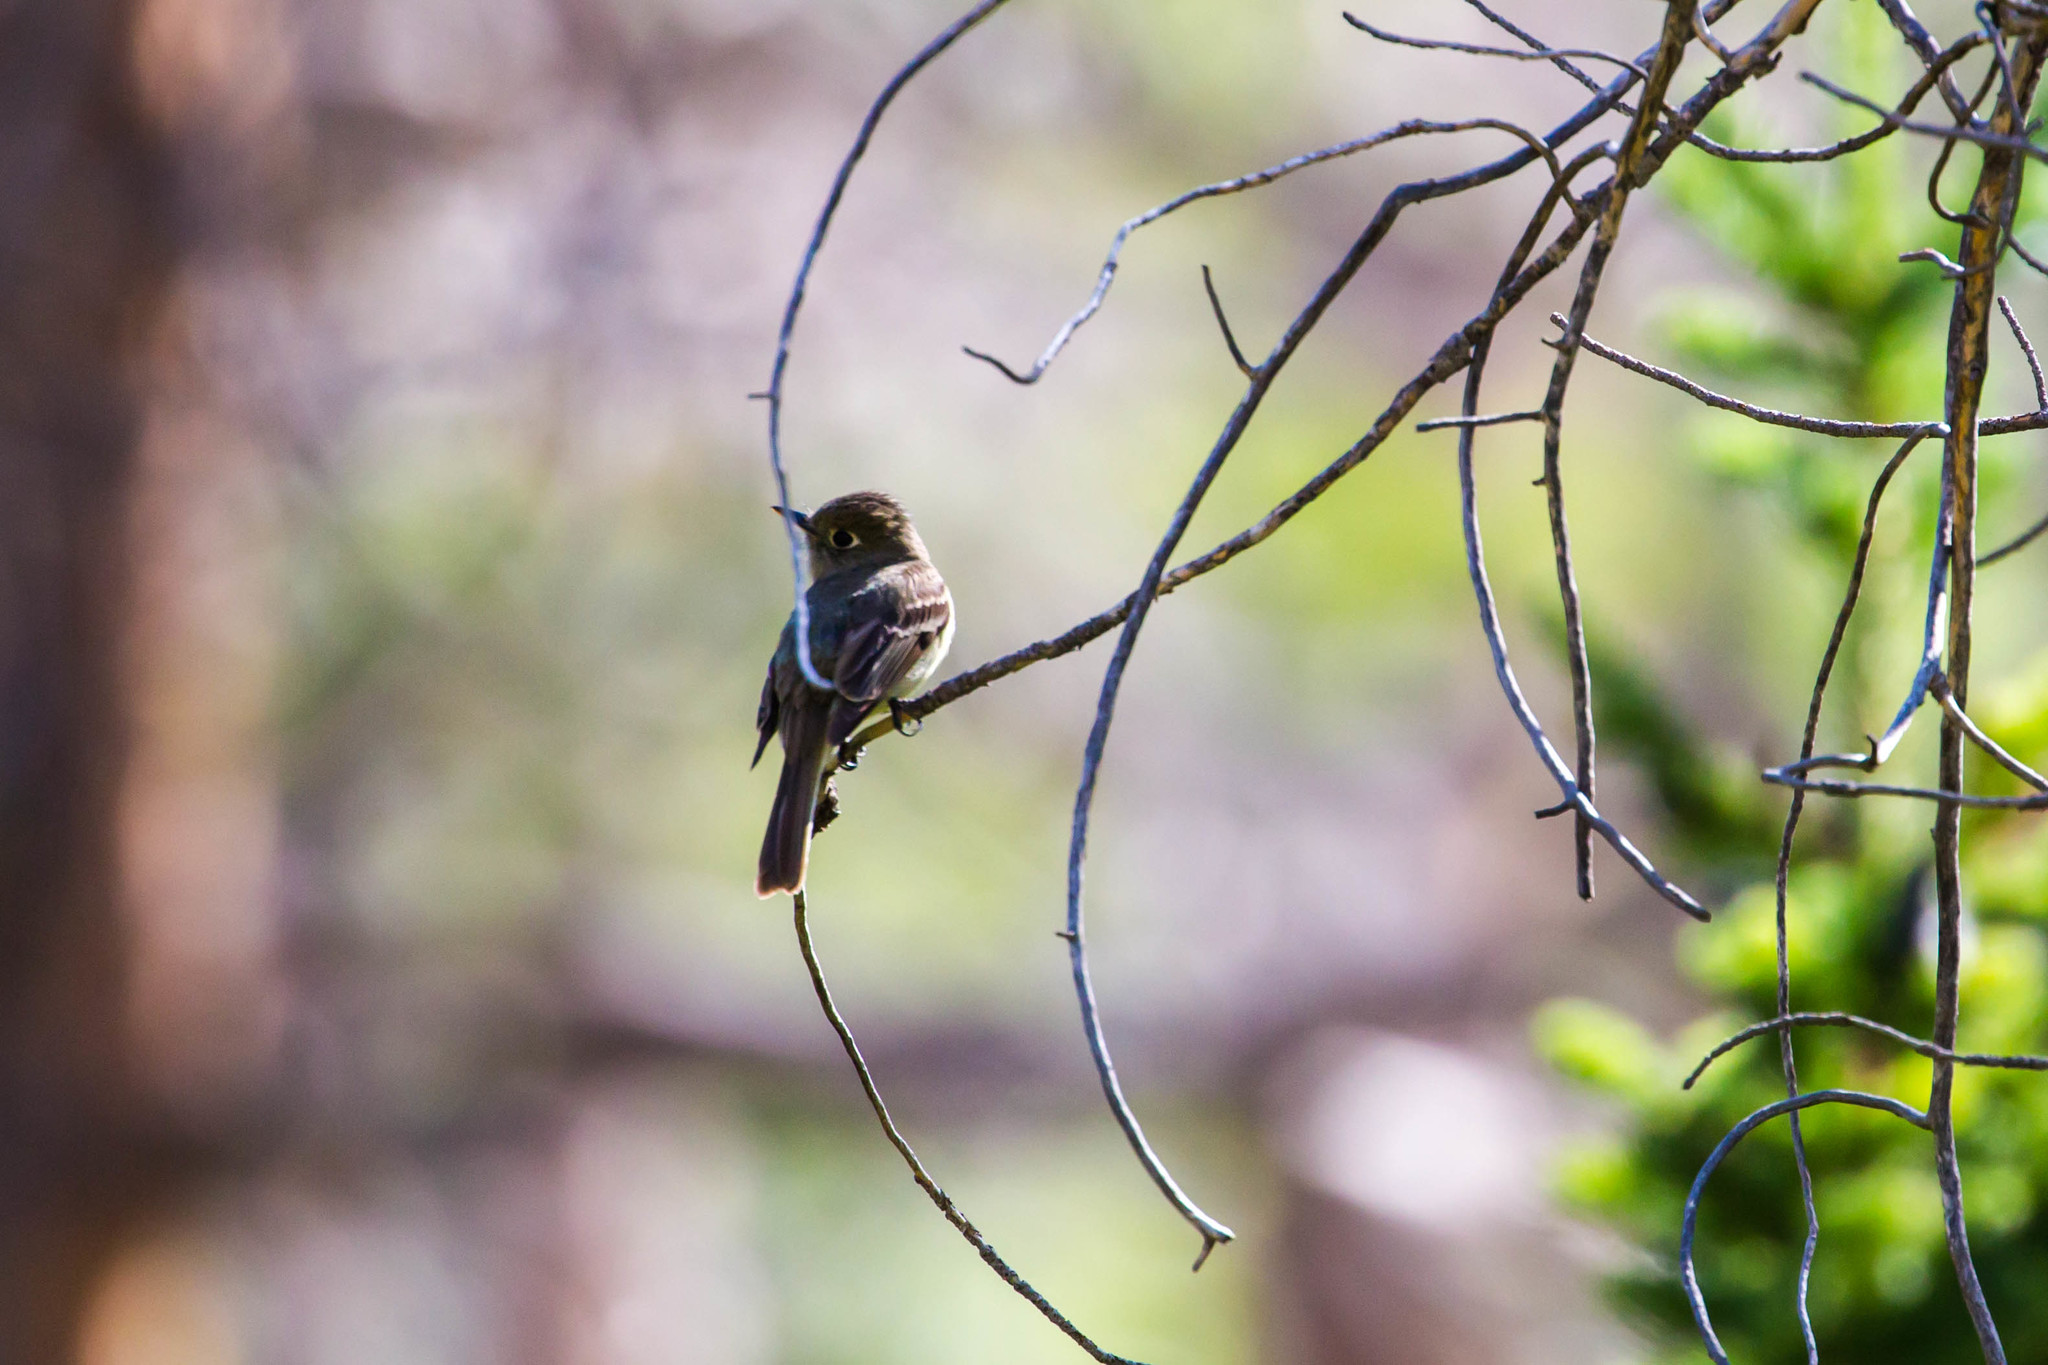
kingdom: Animalia
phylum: Chordata
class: Aves
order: Passeriformes
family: Tyrannidae
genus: Empidonax
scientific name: Empidonax difficilis
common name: Pacific-slope flycatcher
